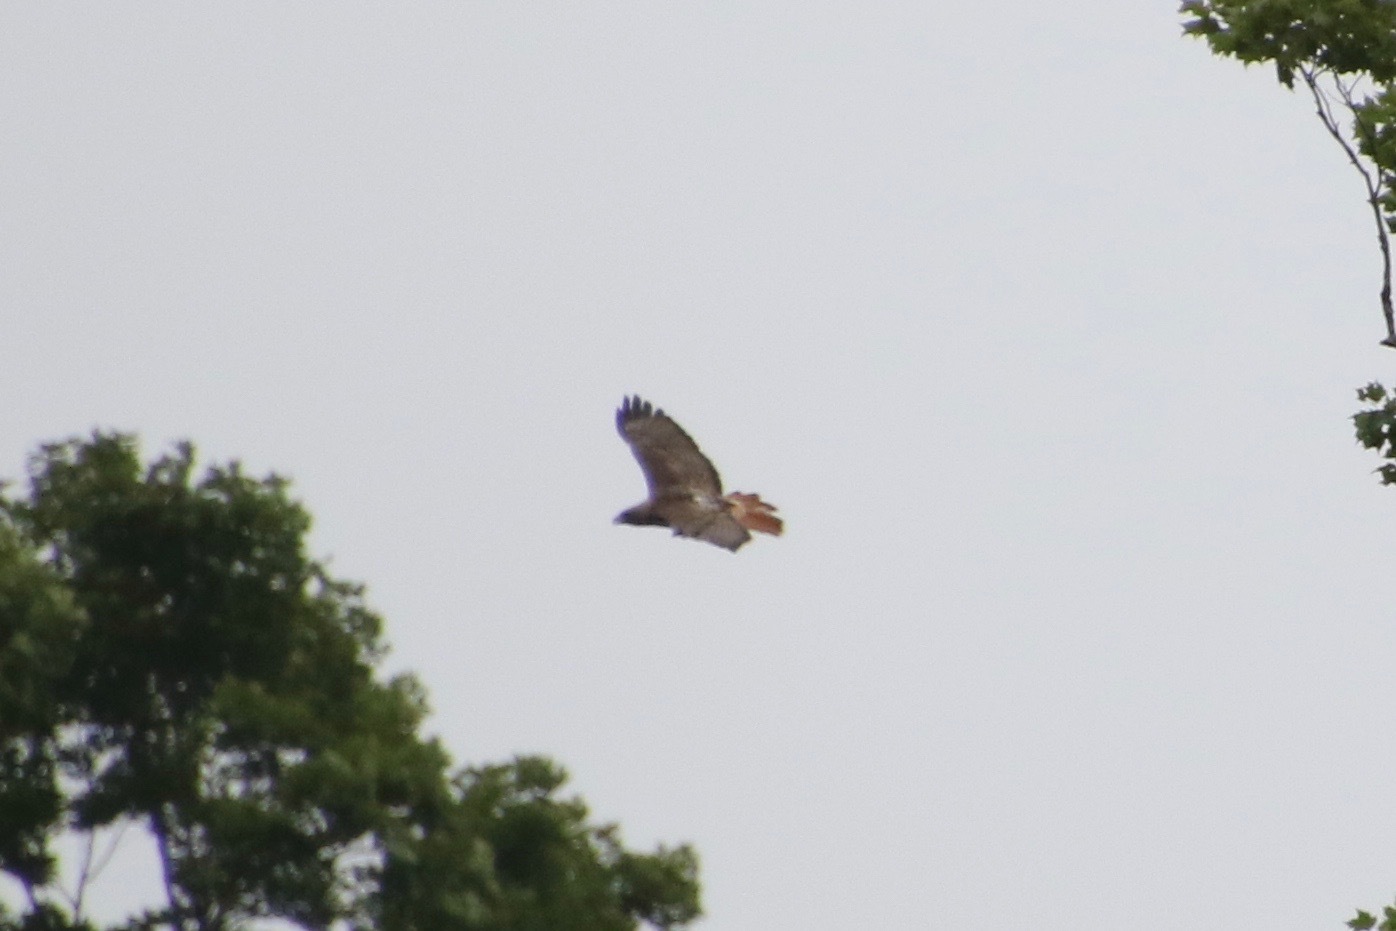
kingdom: Animalia
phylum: Chordata
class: Aves
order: Accipitriformes
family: Accipitridae
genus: Buteo
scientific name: Buteo jamaicensis
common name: Red-tailed hawk
